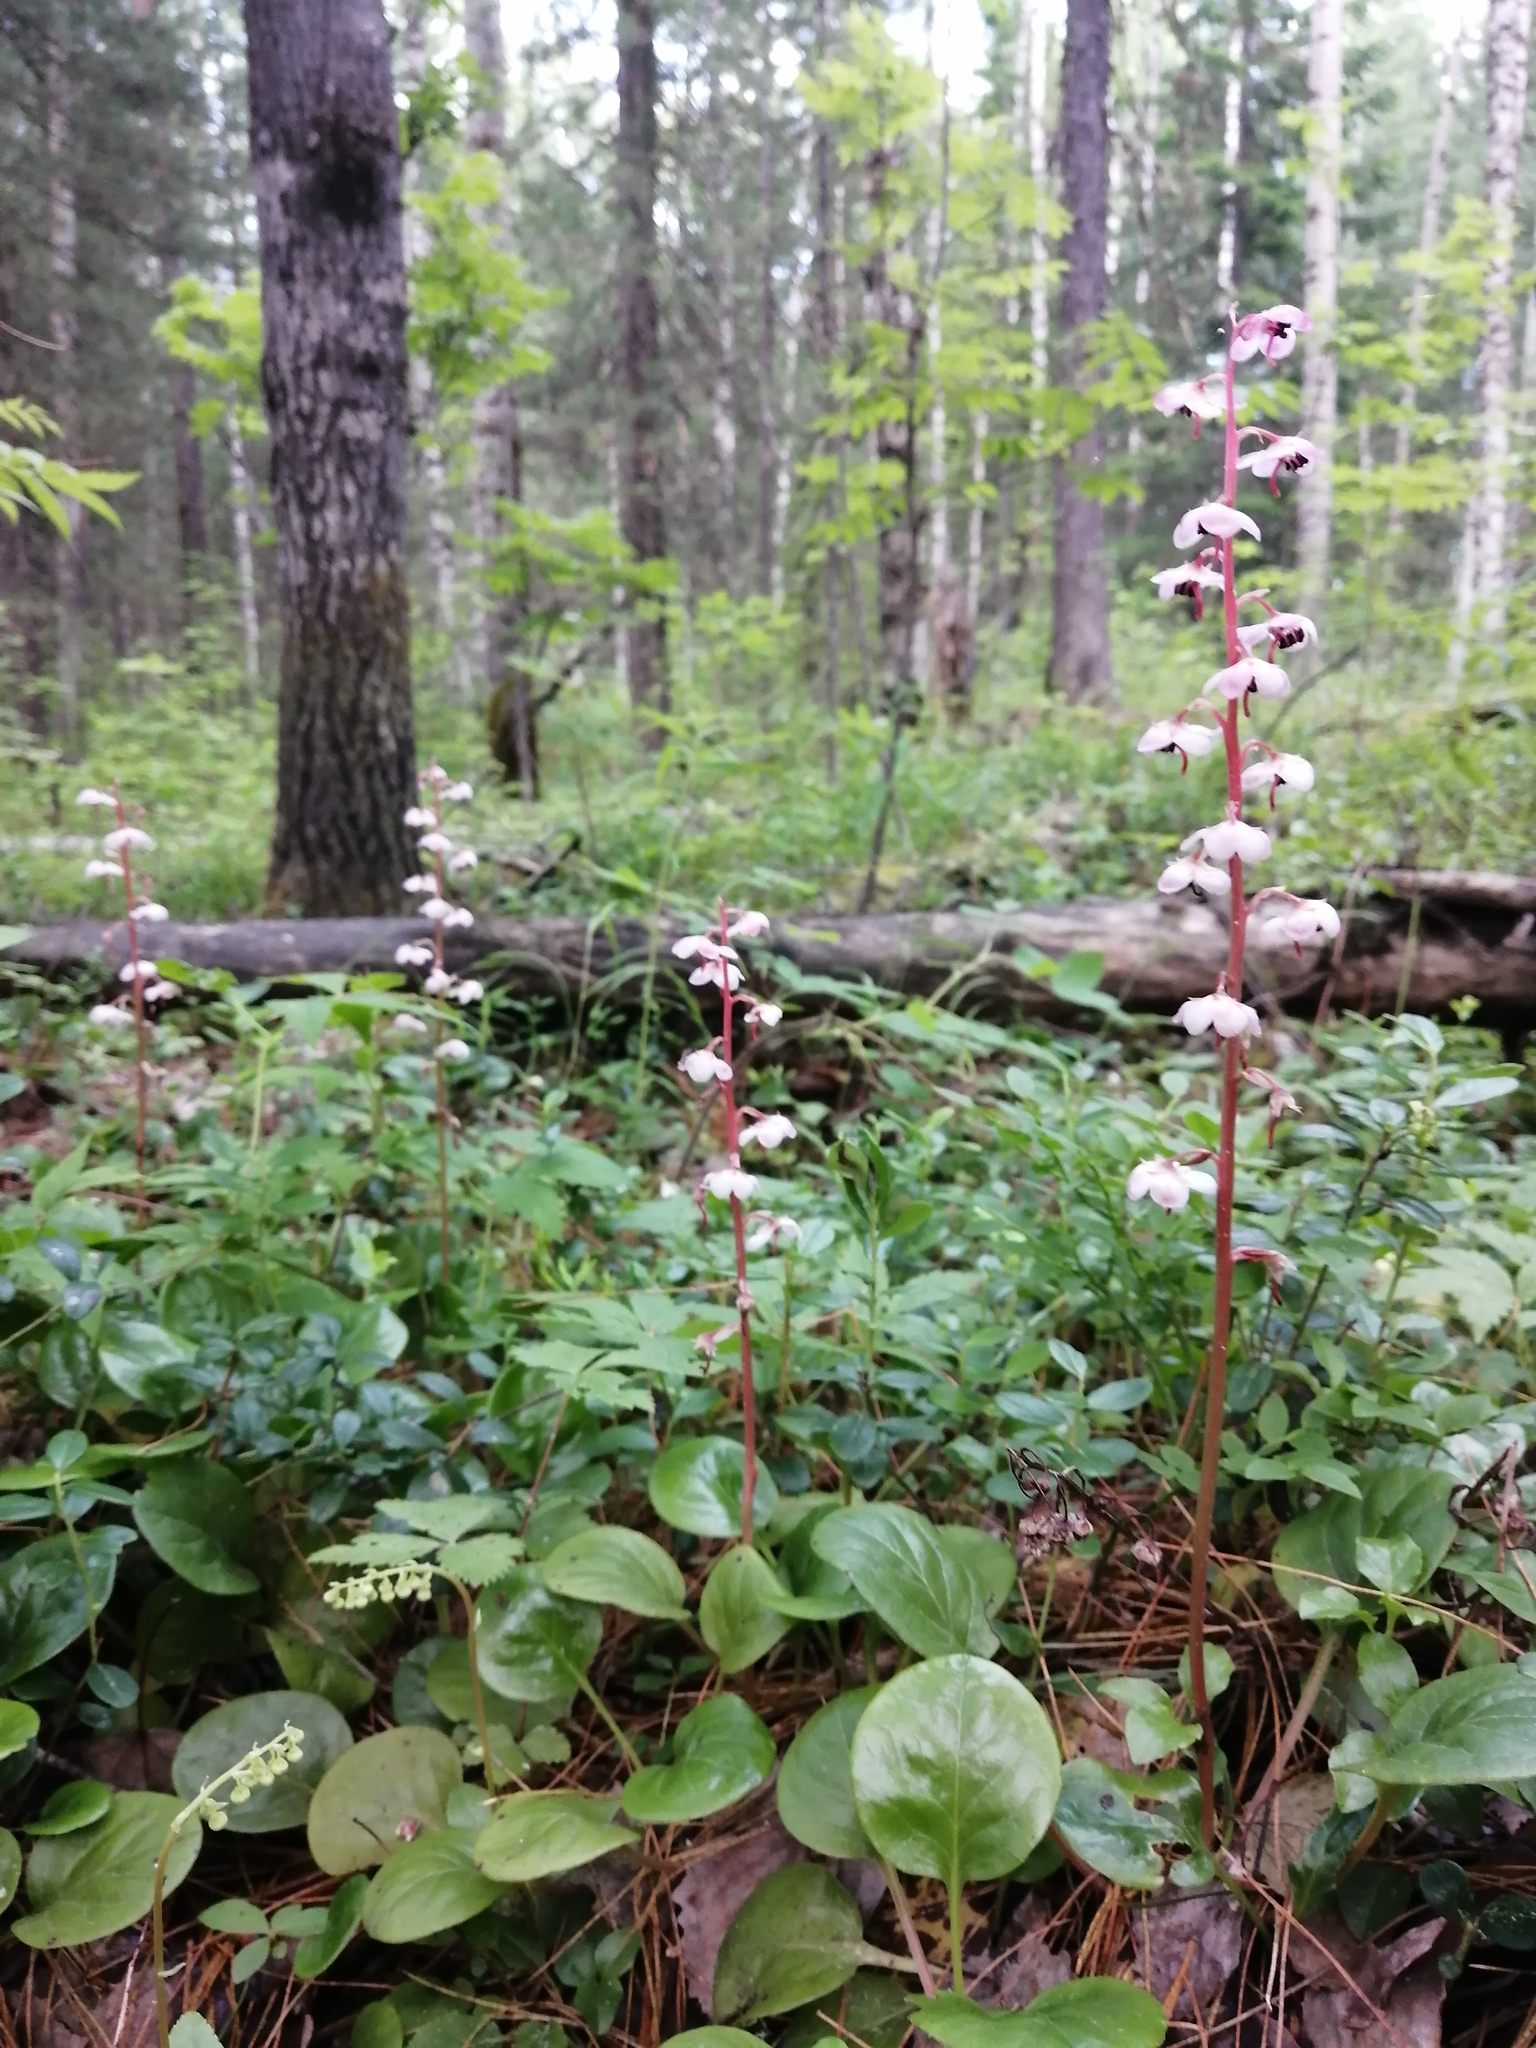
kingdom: Plantae
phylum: Tracheophyta
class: Magnoliopsida
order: Ericales
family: Ericaceae
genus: Pyrola
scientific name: Pyrola asarifolia
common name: Bog wintergreen
